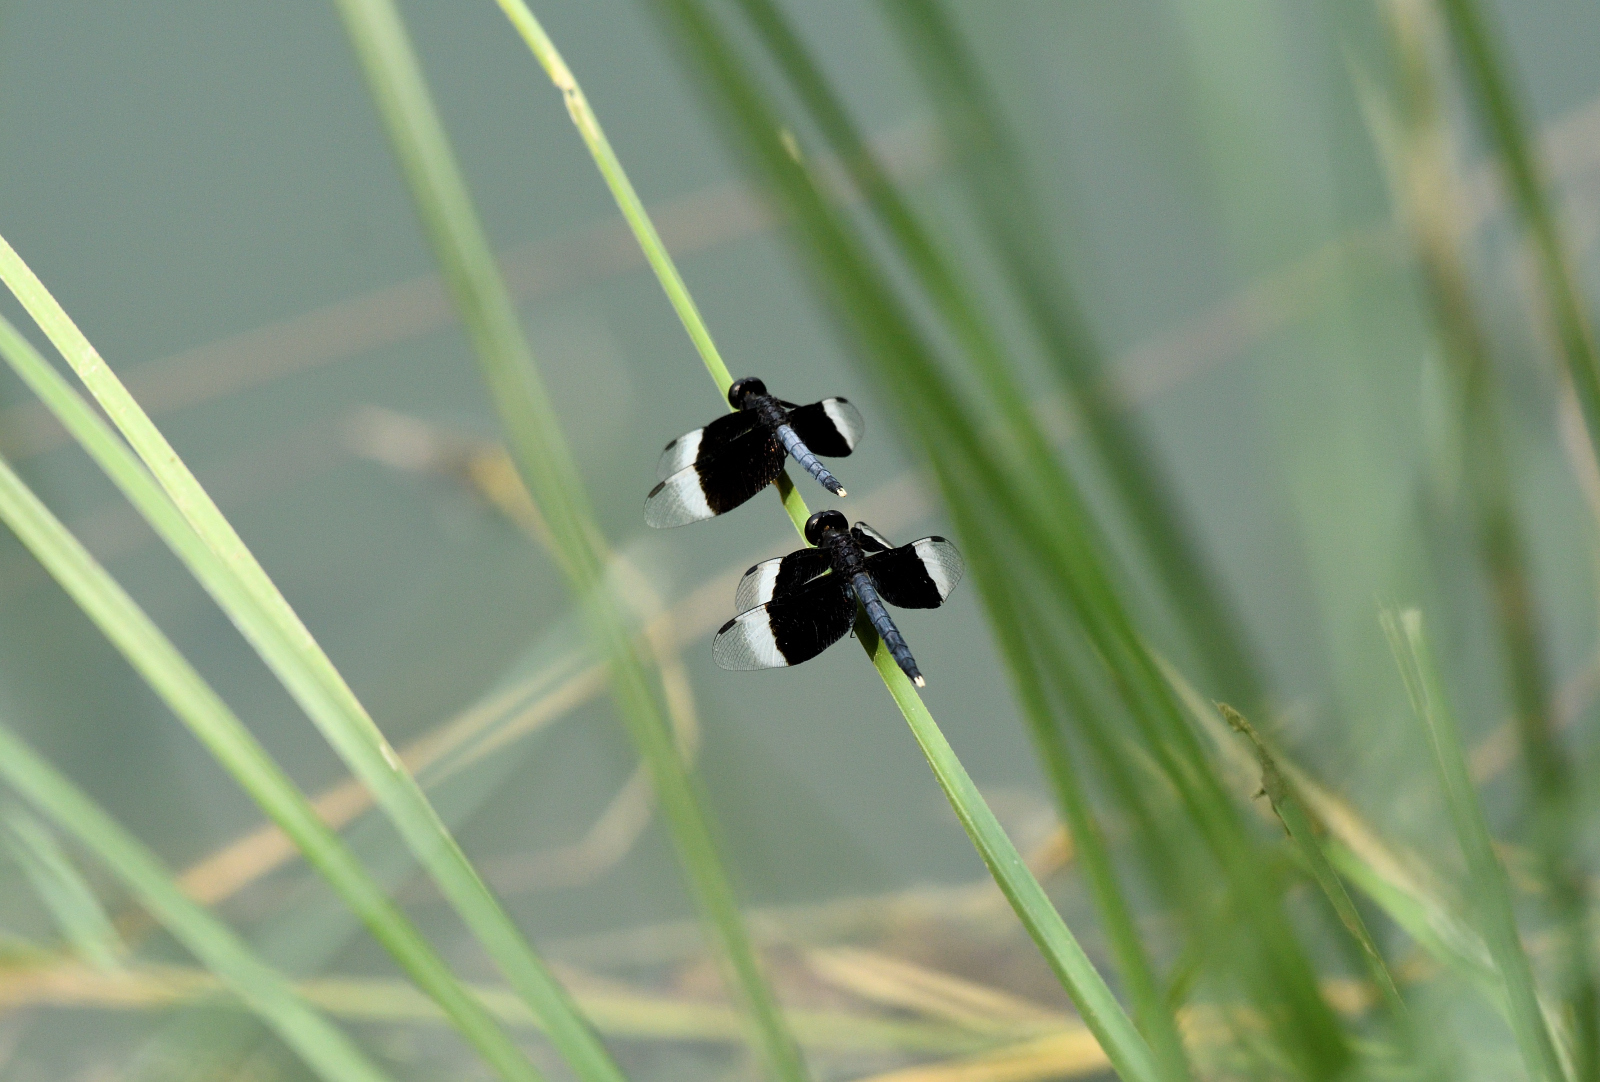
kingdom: Animalia
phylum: Arthropoda
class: Insecta
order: Odonata
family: Libellulidae
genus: Neurothemis
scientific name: Neurothemis tullia
